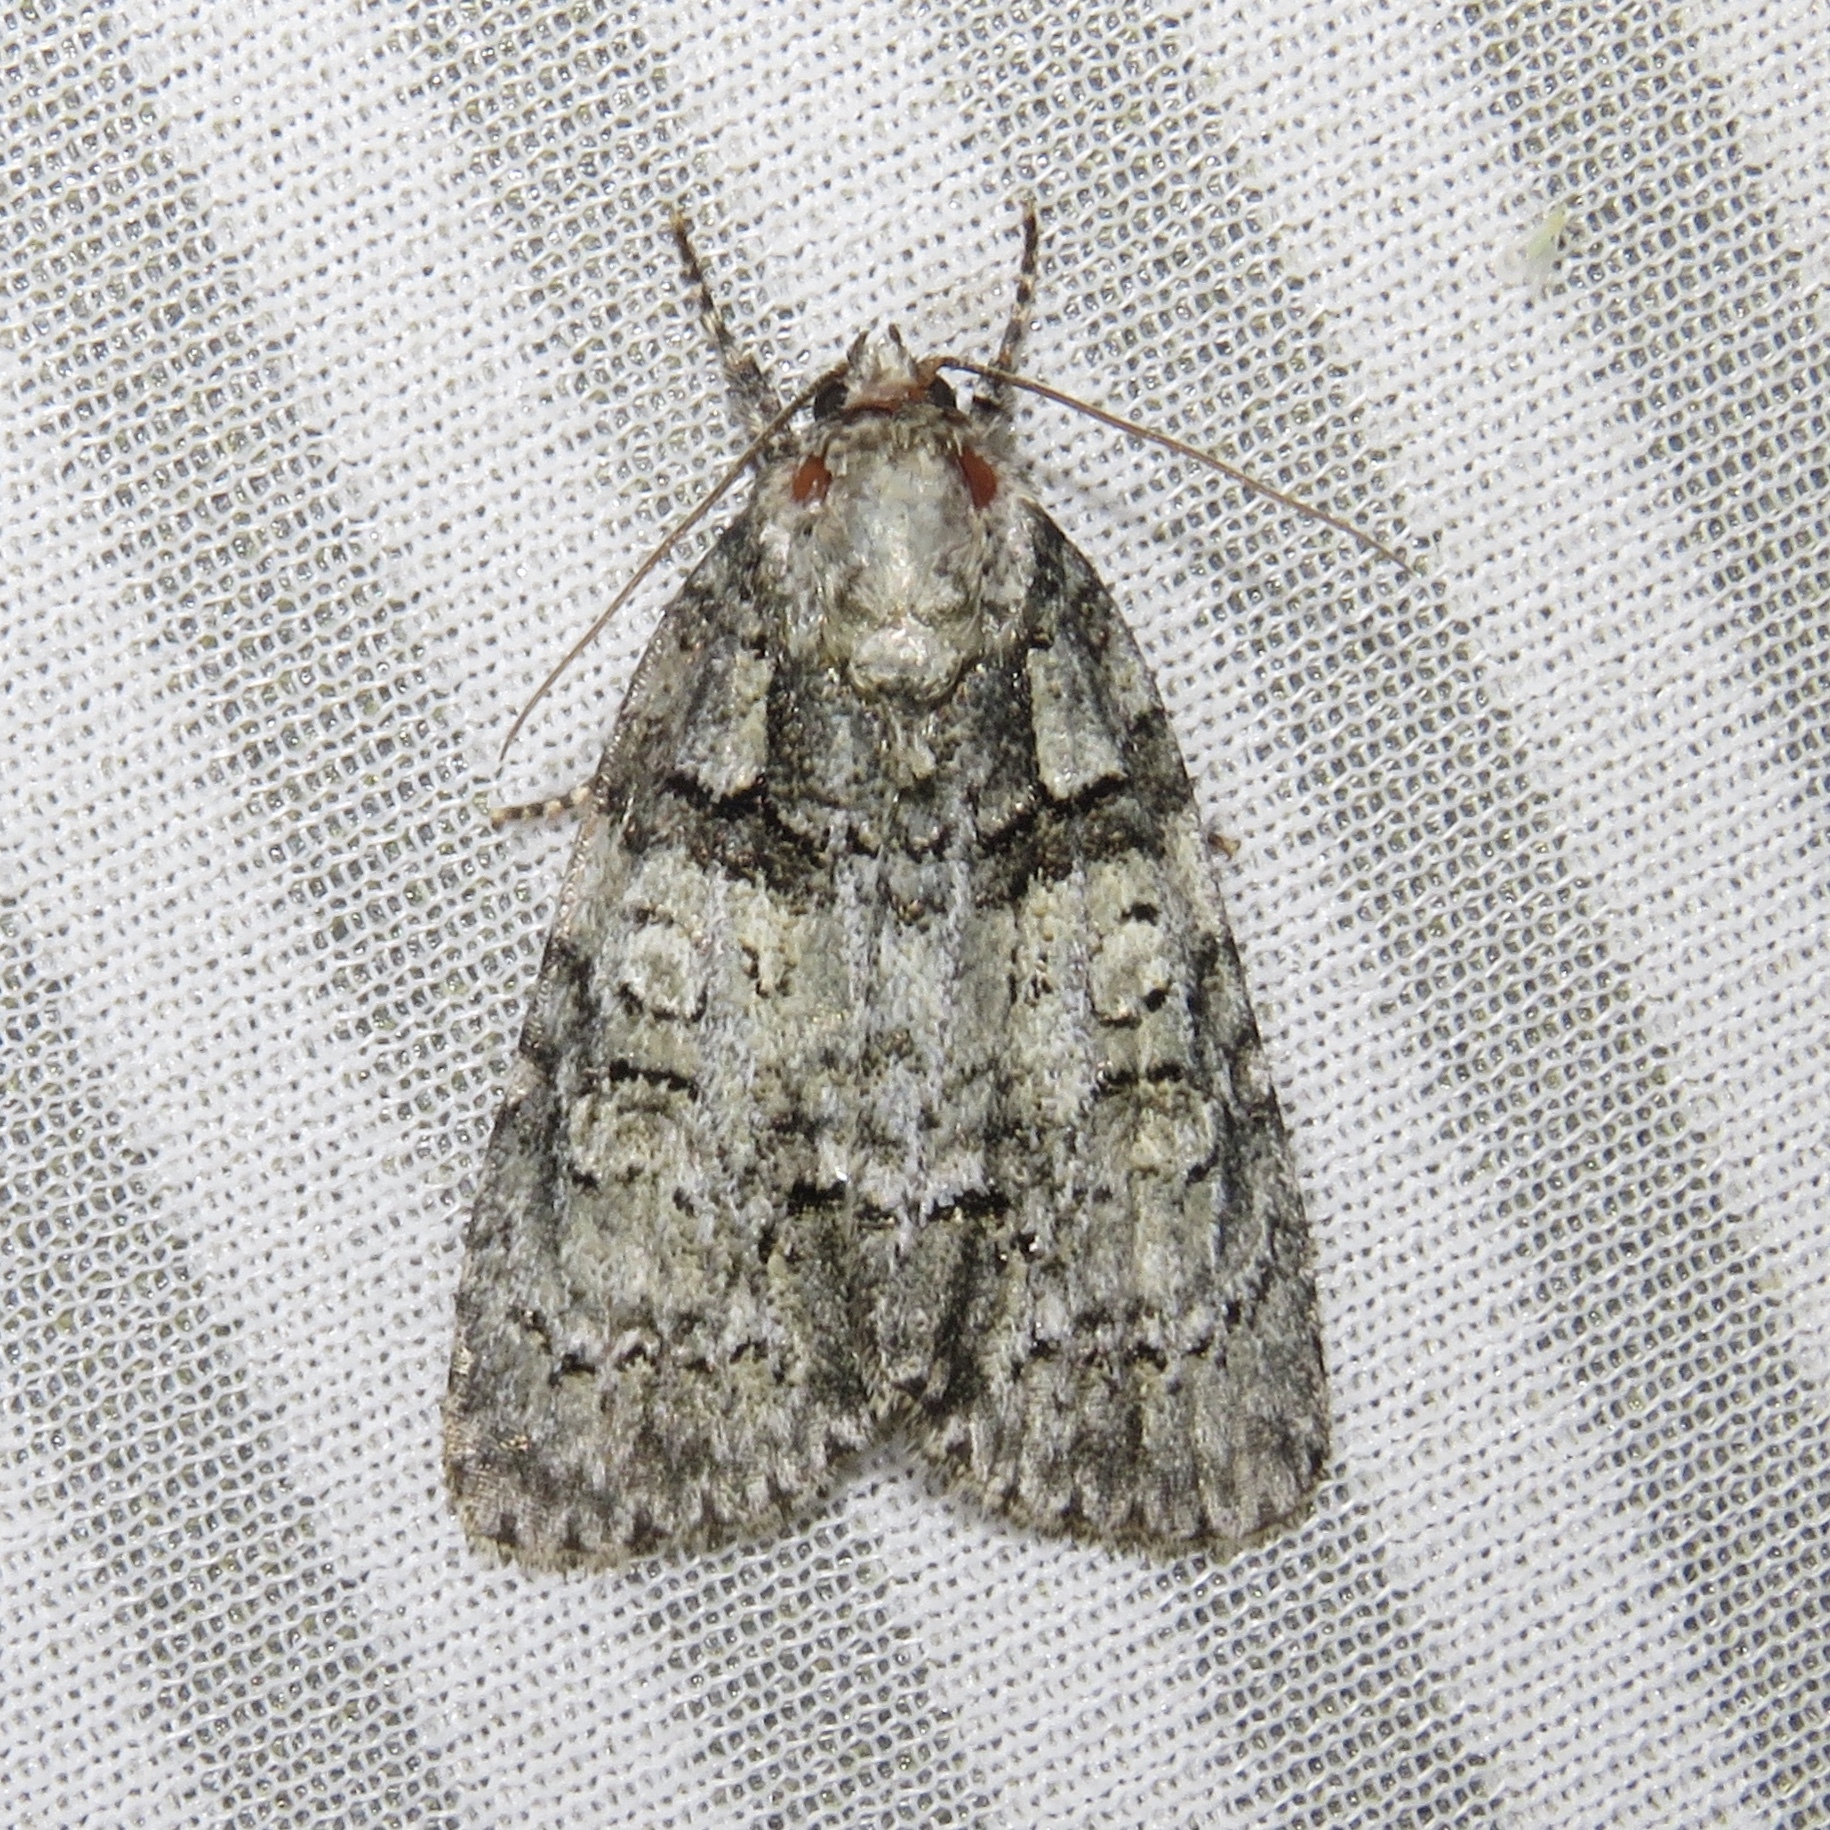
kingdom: Animalia
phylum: Arthropoda
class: Insecta
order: Lepidoptera
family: Noctuidae
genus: Acronicta
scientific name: Acronicta increta
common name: Eclipsed oak dagger
